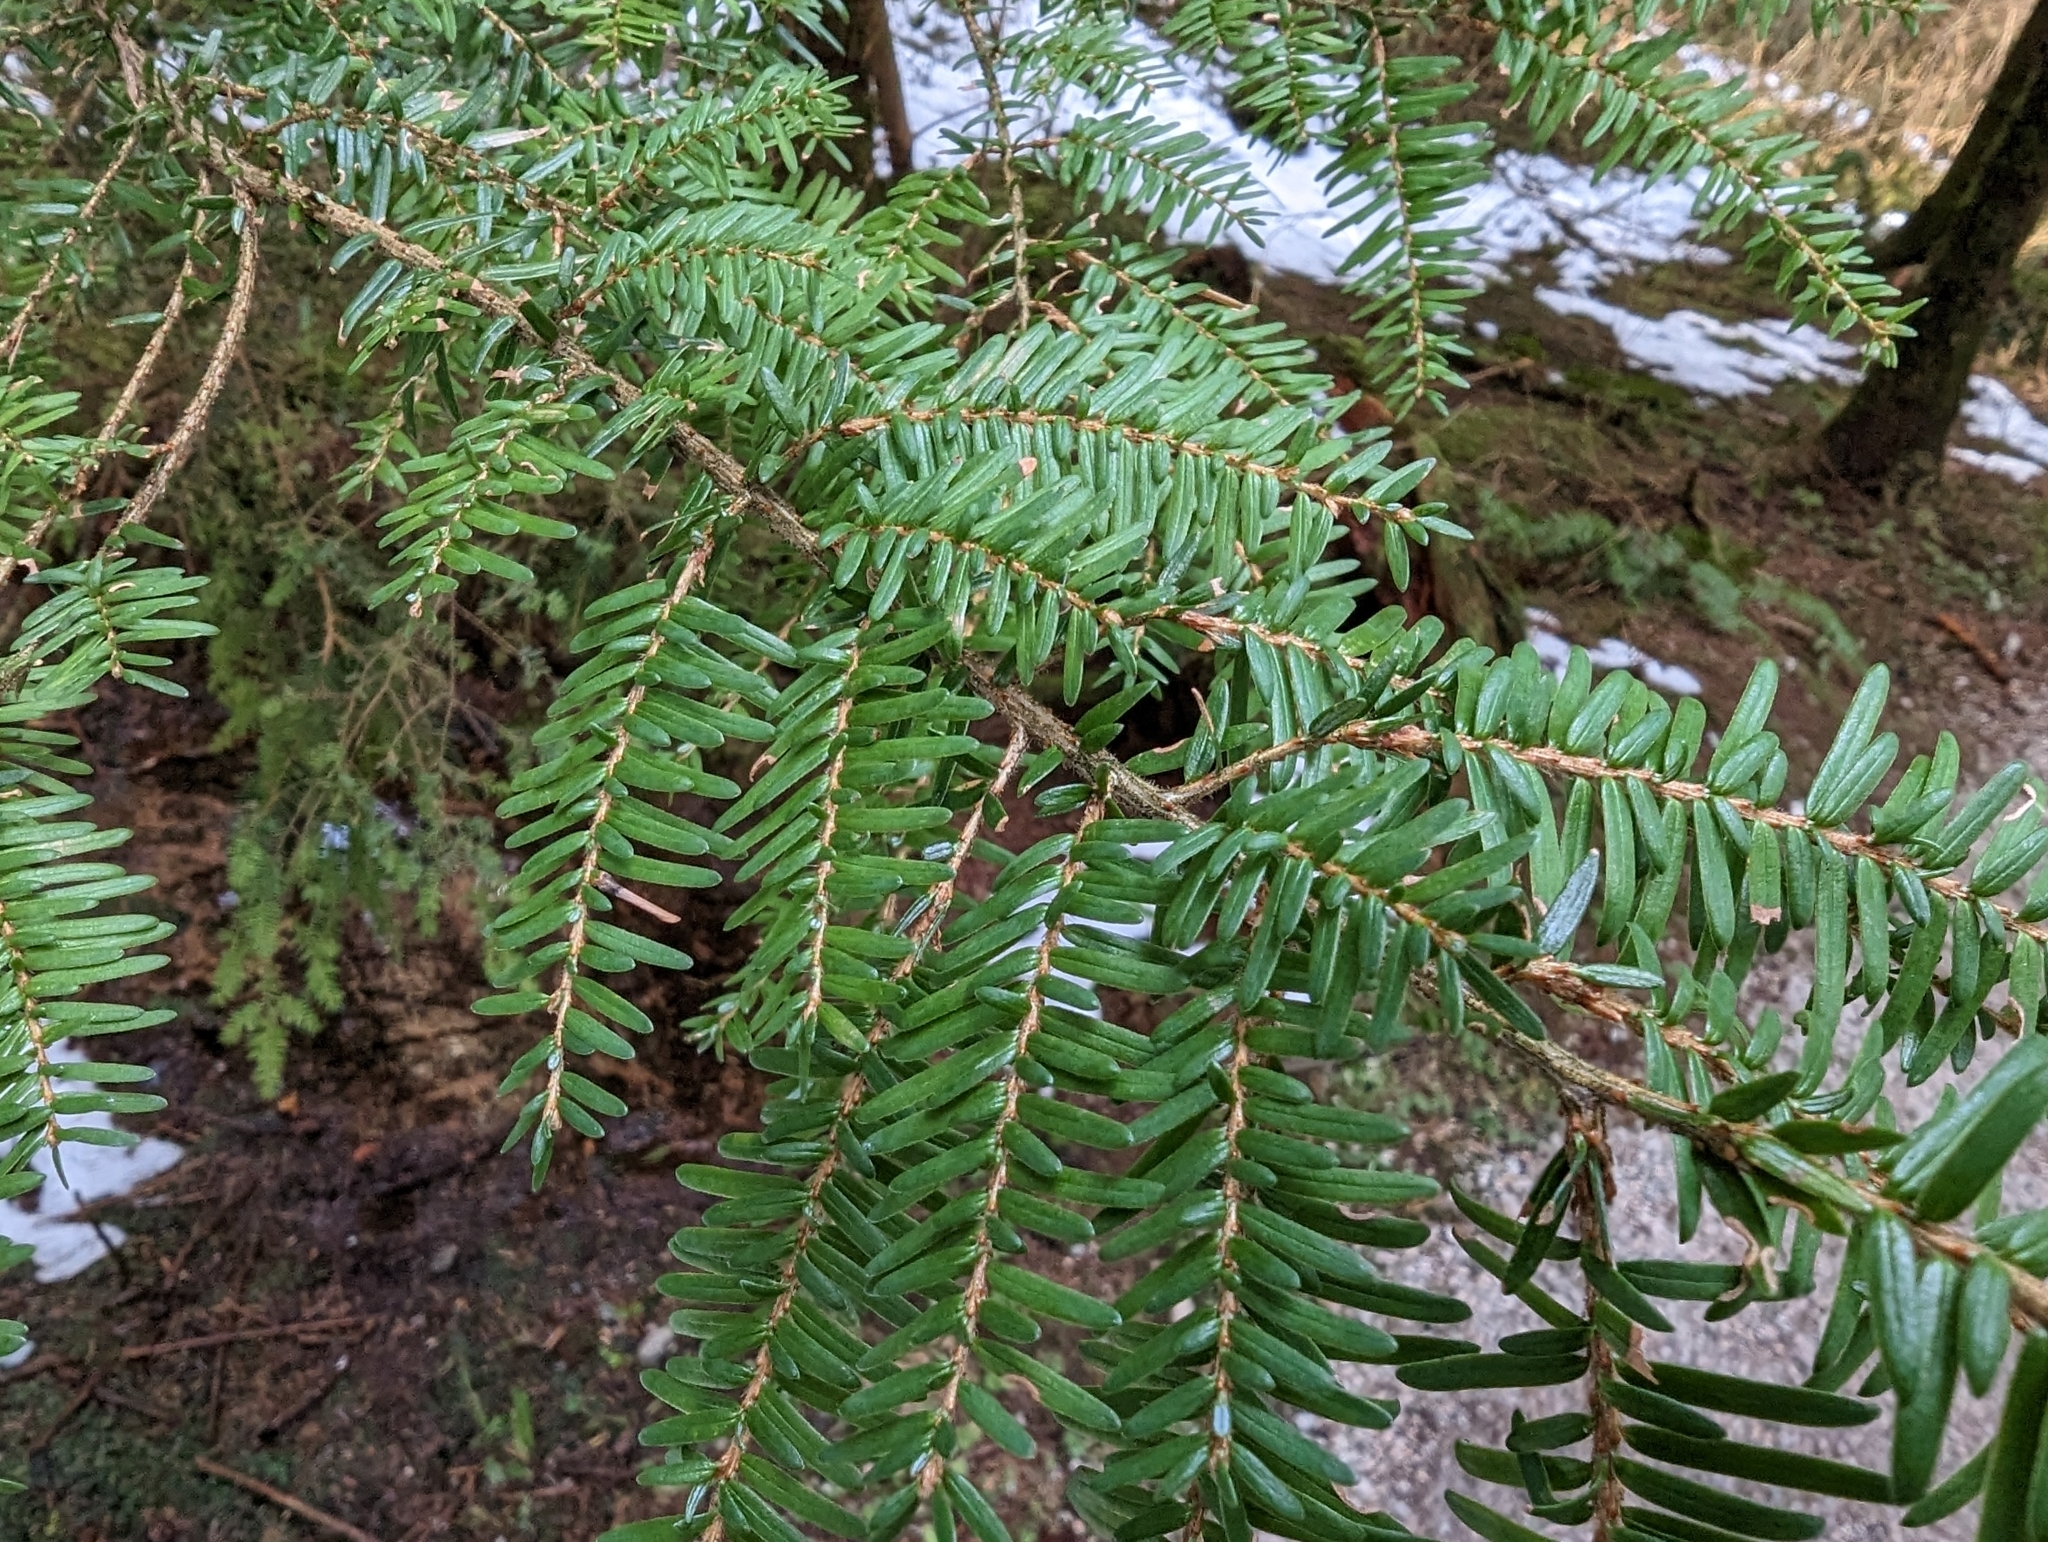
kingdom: Plantae
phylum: Tracheophyta
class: Pinopsida
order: Pinales
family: Pinaceae
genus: Tsuga
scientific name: Tsuga heterophylla
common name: Western hemlock
